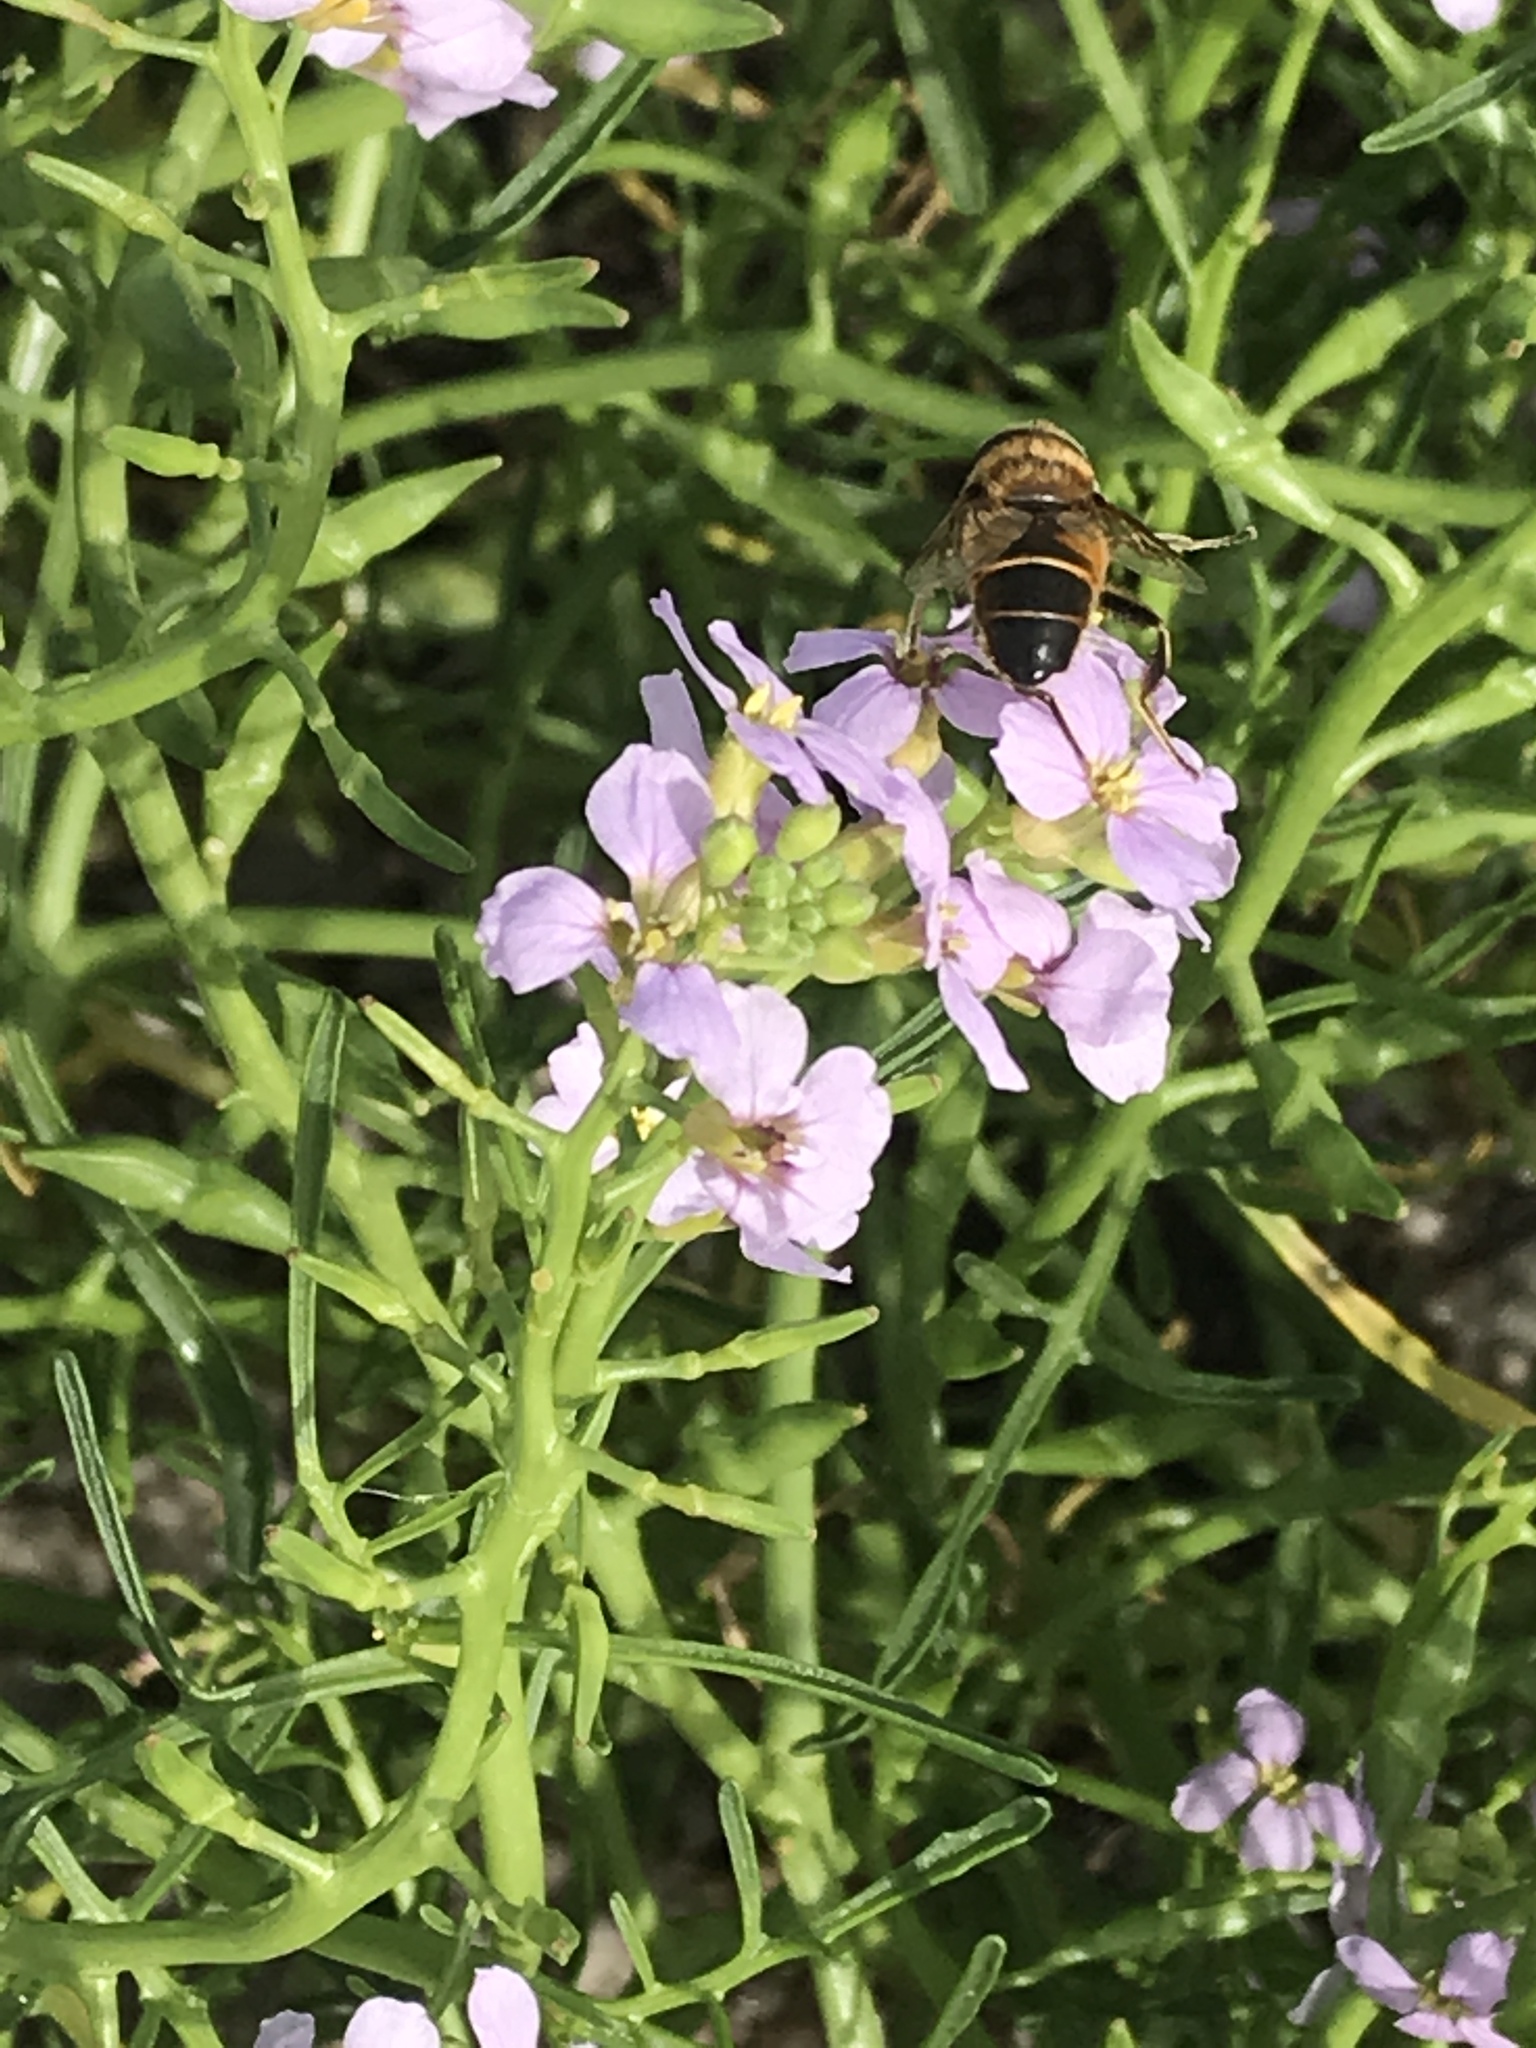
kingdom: Animalia
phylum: Arthropoda
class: Insecta
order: Diptera
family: Syrphidae
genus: Eristalis
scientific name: Eristalis tenax
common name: Drone fly
